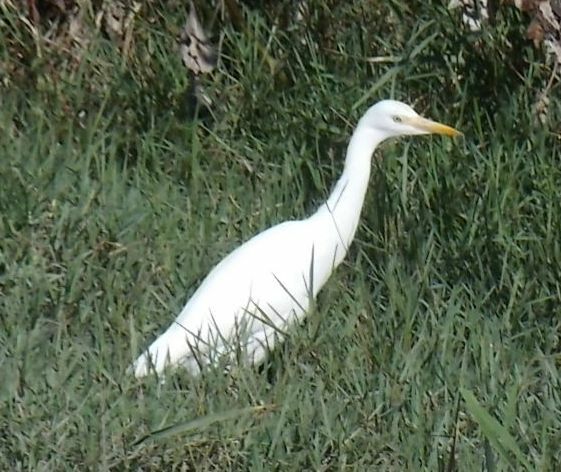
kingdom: Animalia
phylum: Chordata
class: Aves
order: Pelecaniformes
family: Ardeidae
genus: Bubulcus
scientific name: Bubulcus ibis
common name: Cattle egret
